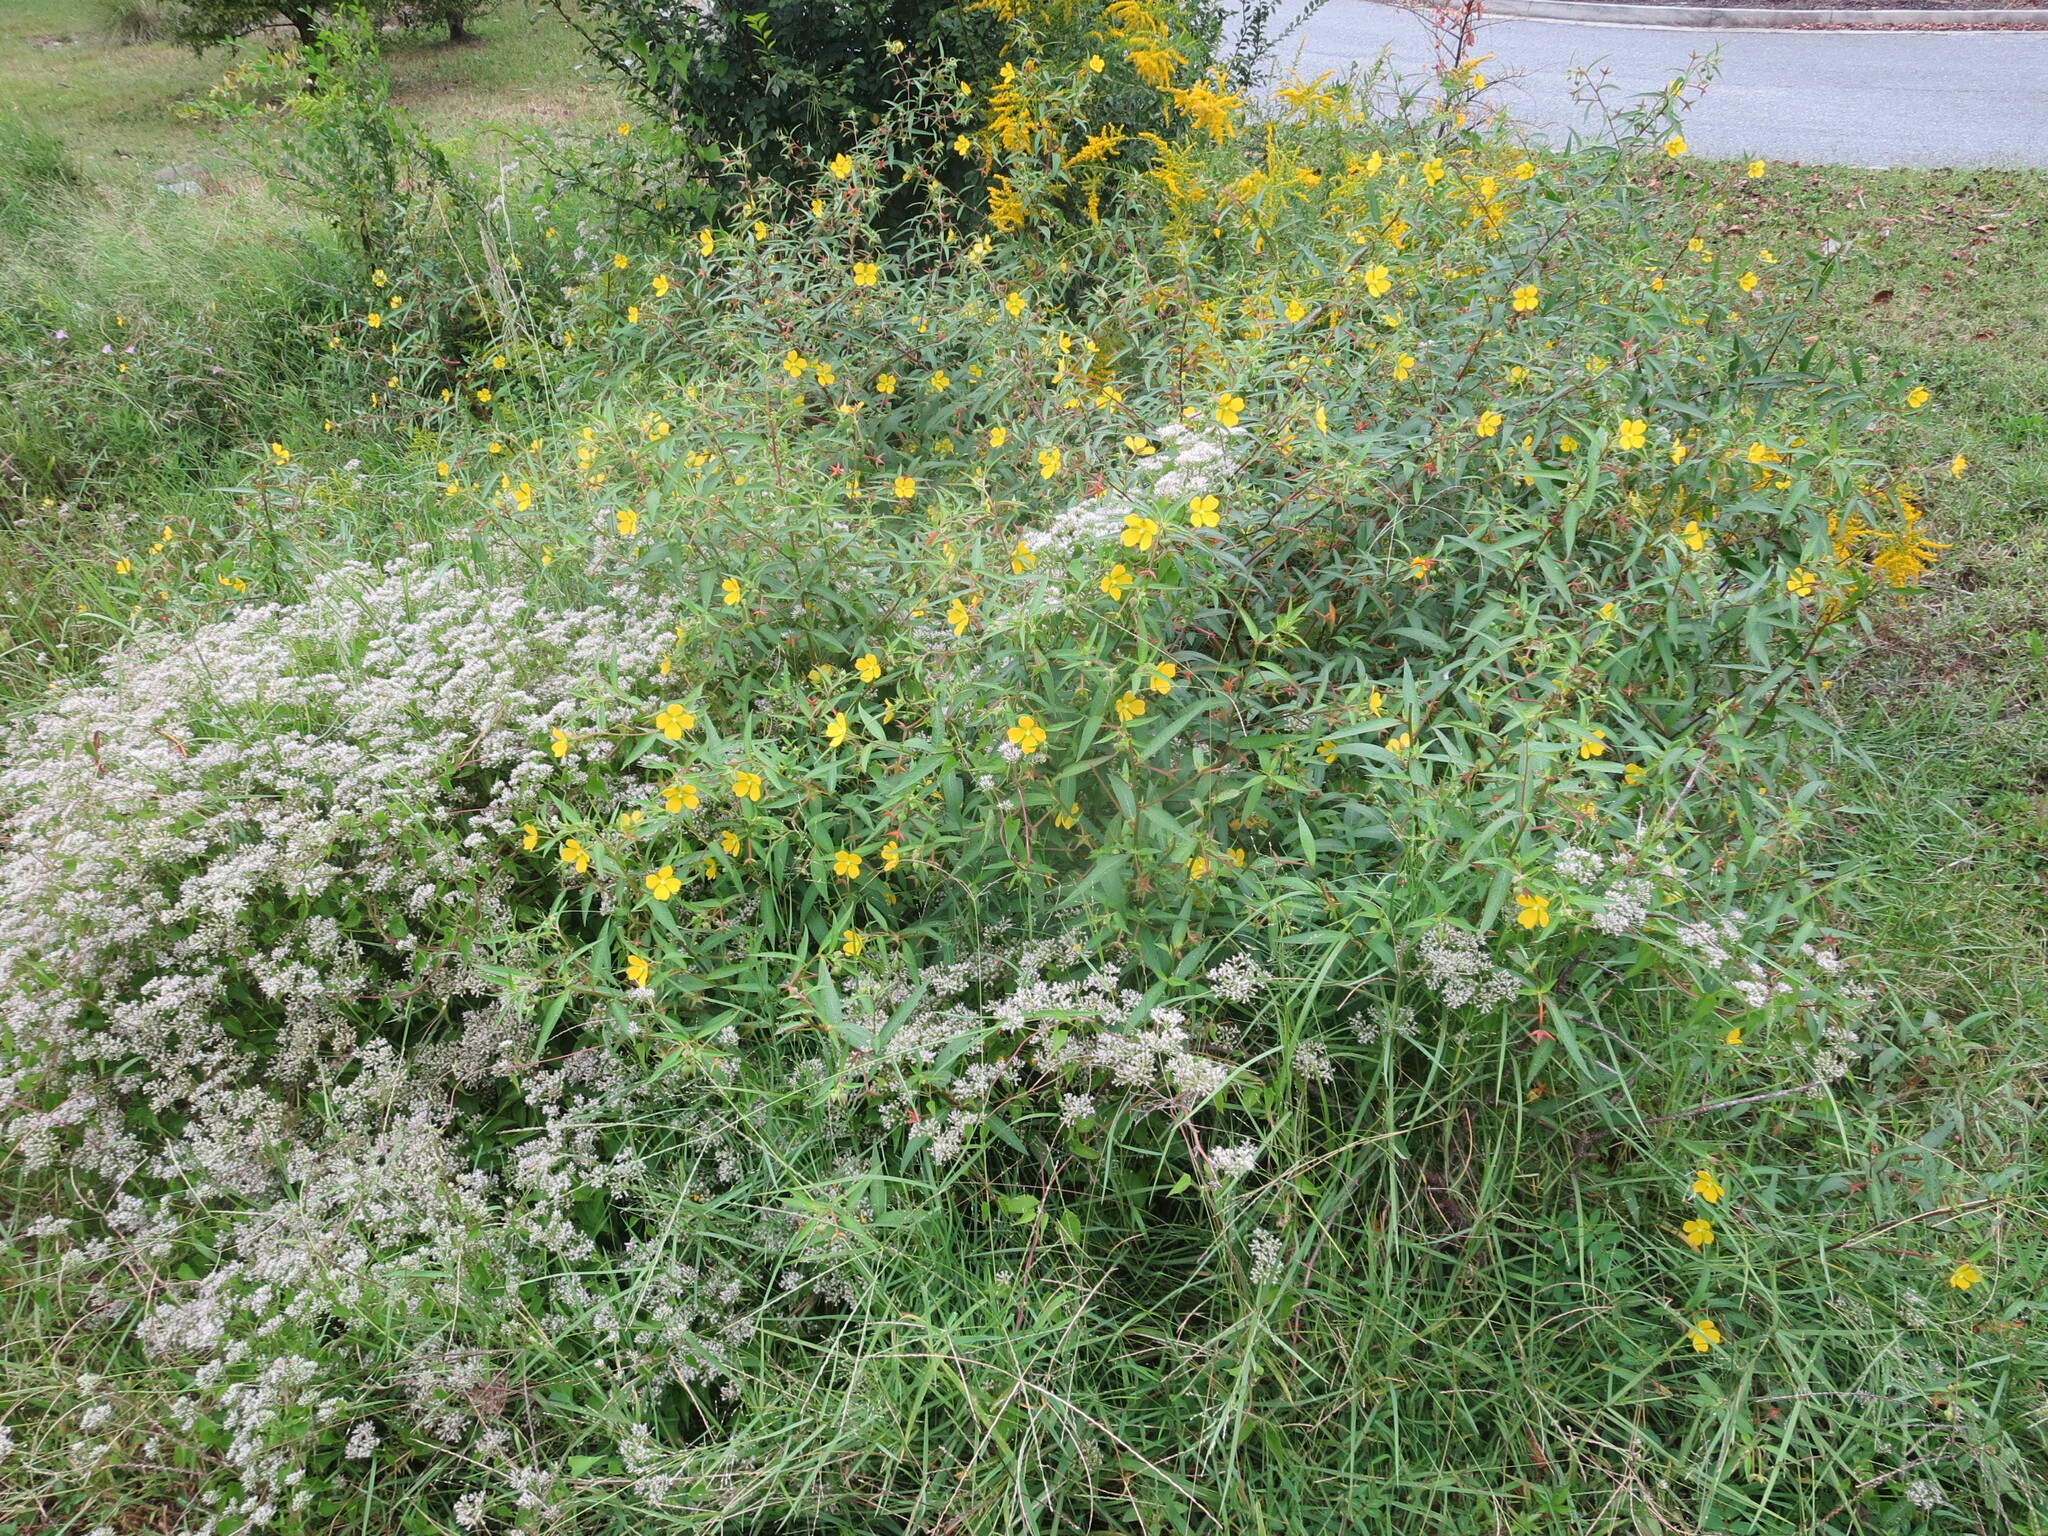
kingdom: Plantae
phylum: Tracheophyta
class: Magnoliopsida
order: Myrtales
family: Onagraceae
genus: Ludwigia
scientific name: Ludwigia octovalvis
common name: Water-primrose
